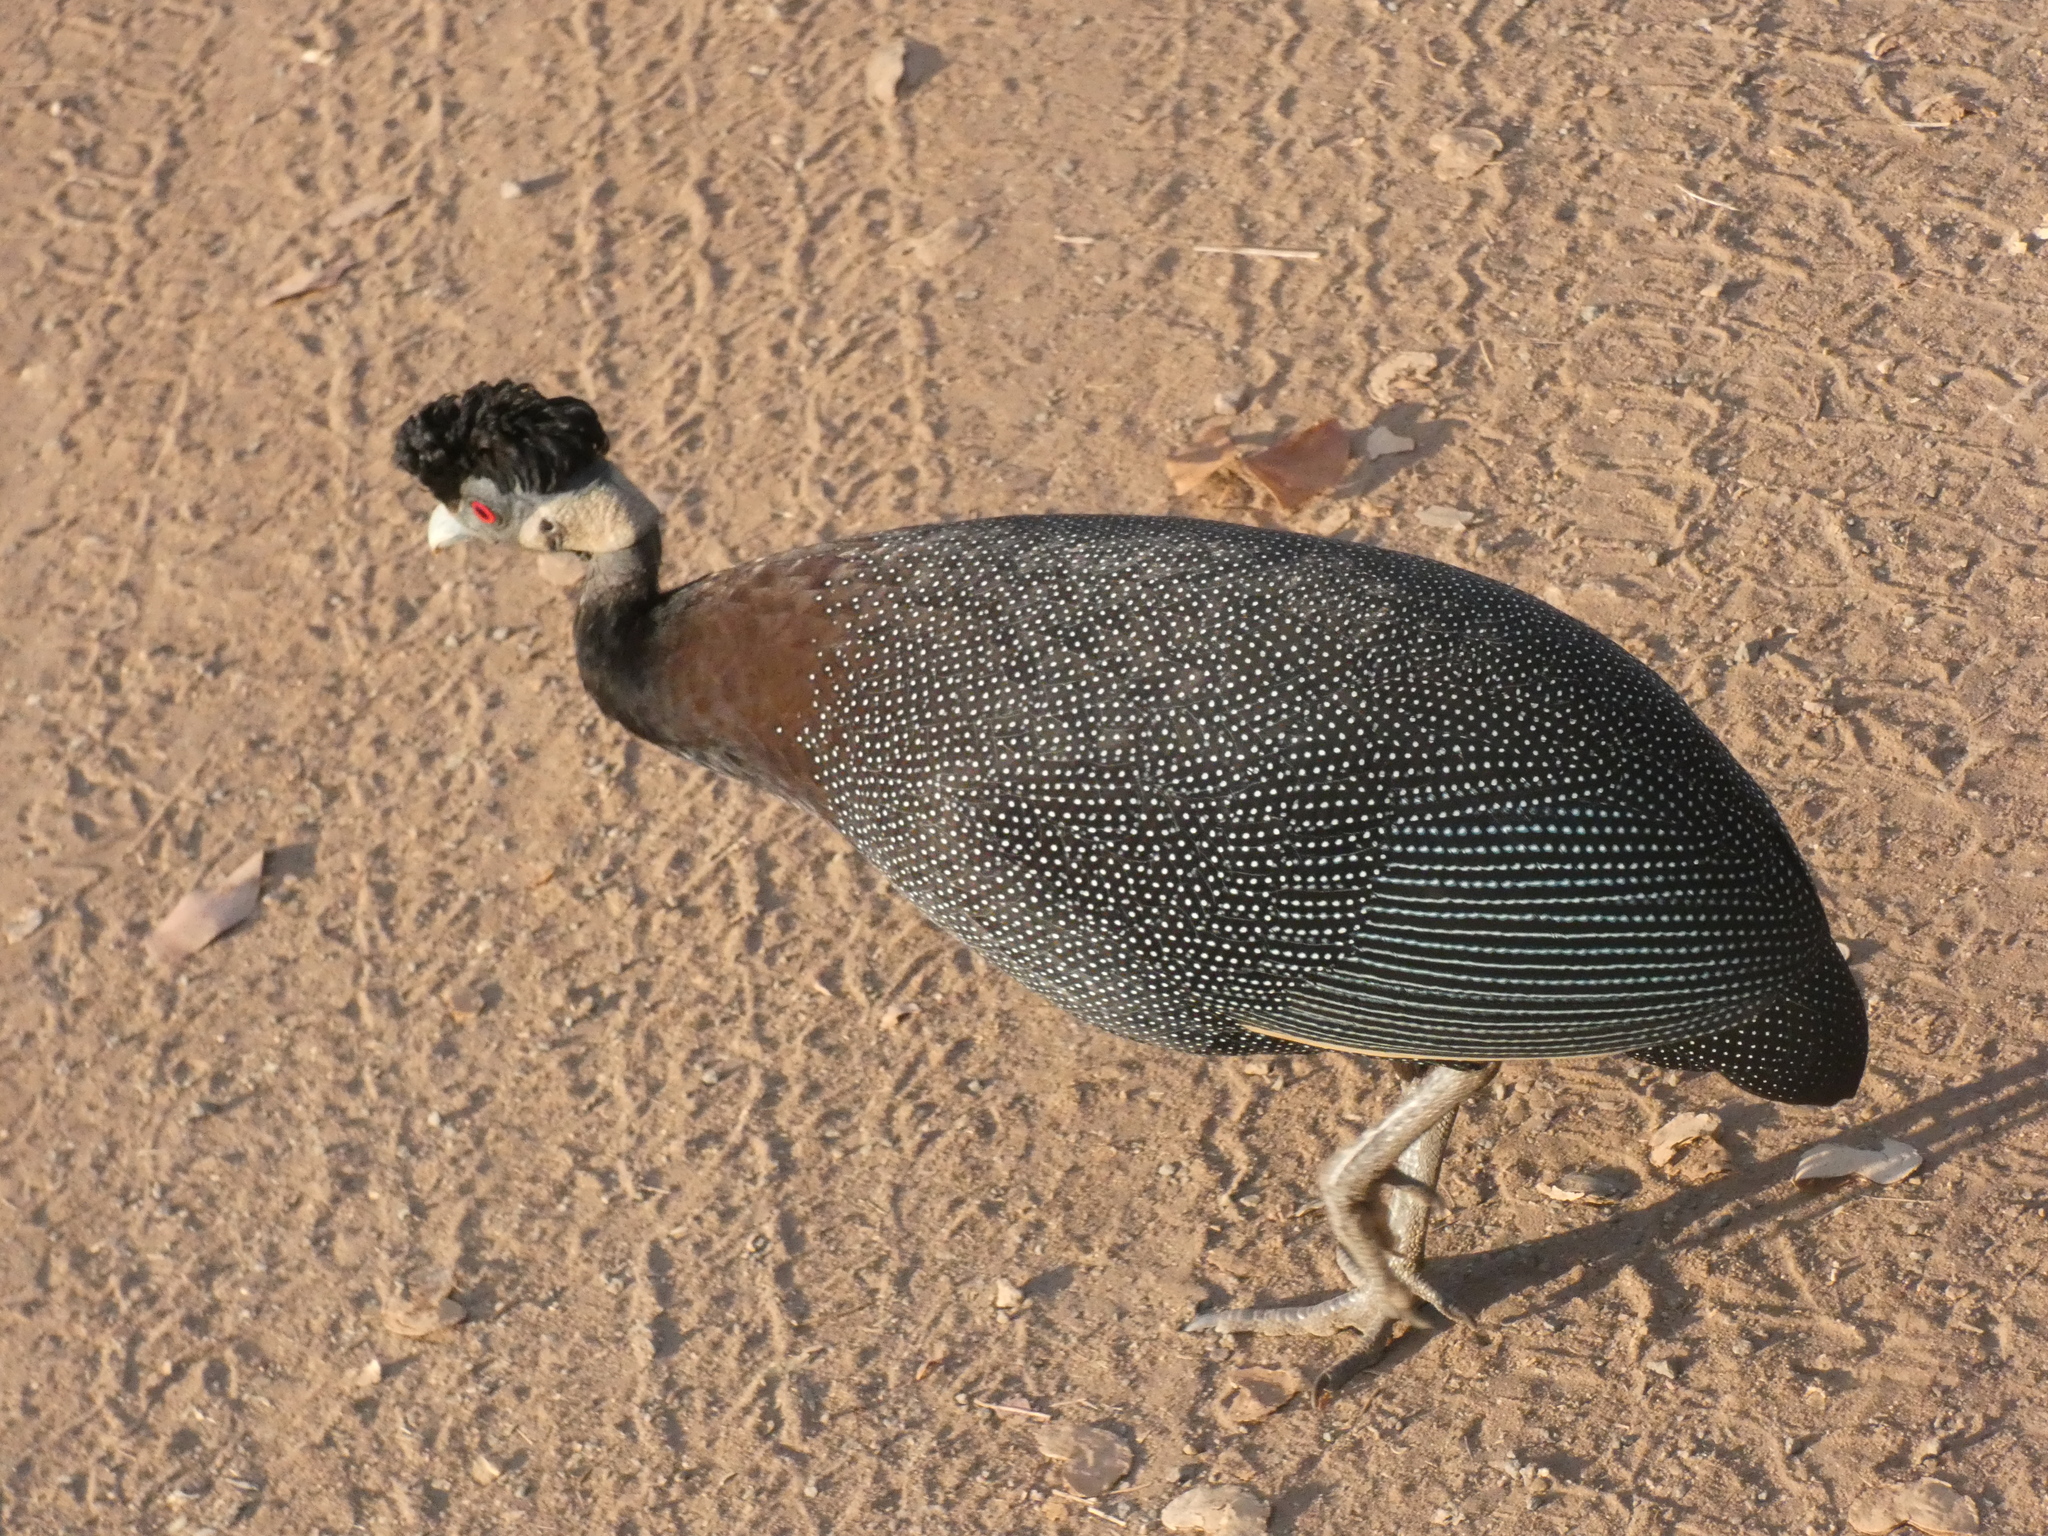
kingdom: Animalia
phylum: Chordata
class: Aves
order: Galliformes
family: Numididae
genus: Guttera
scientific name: Guttera pucherani
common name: Crested guineafowl
